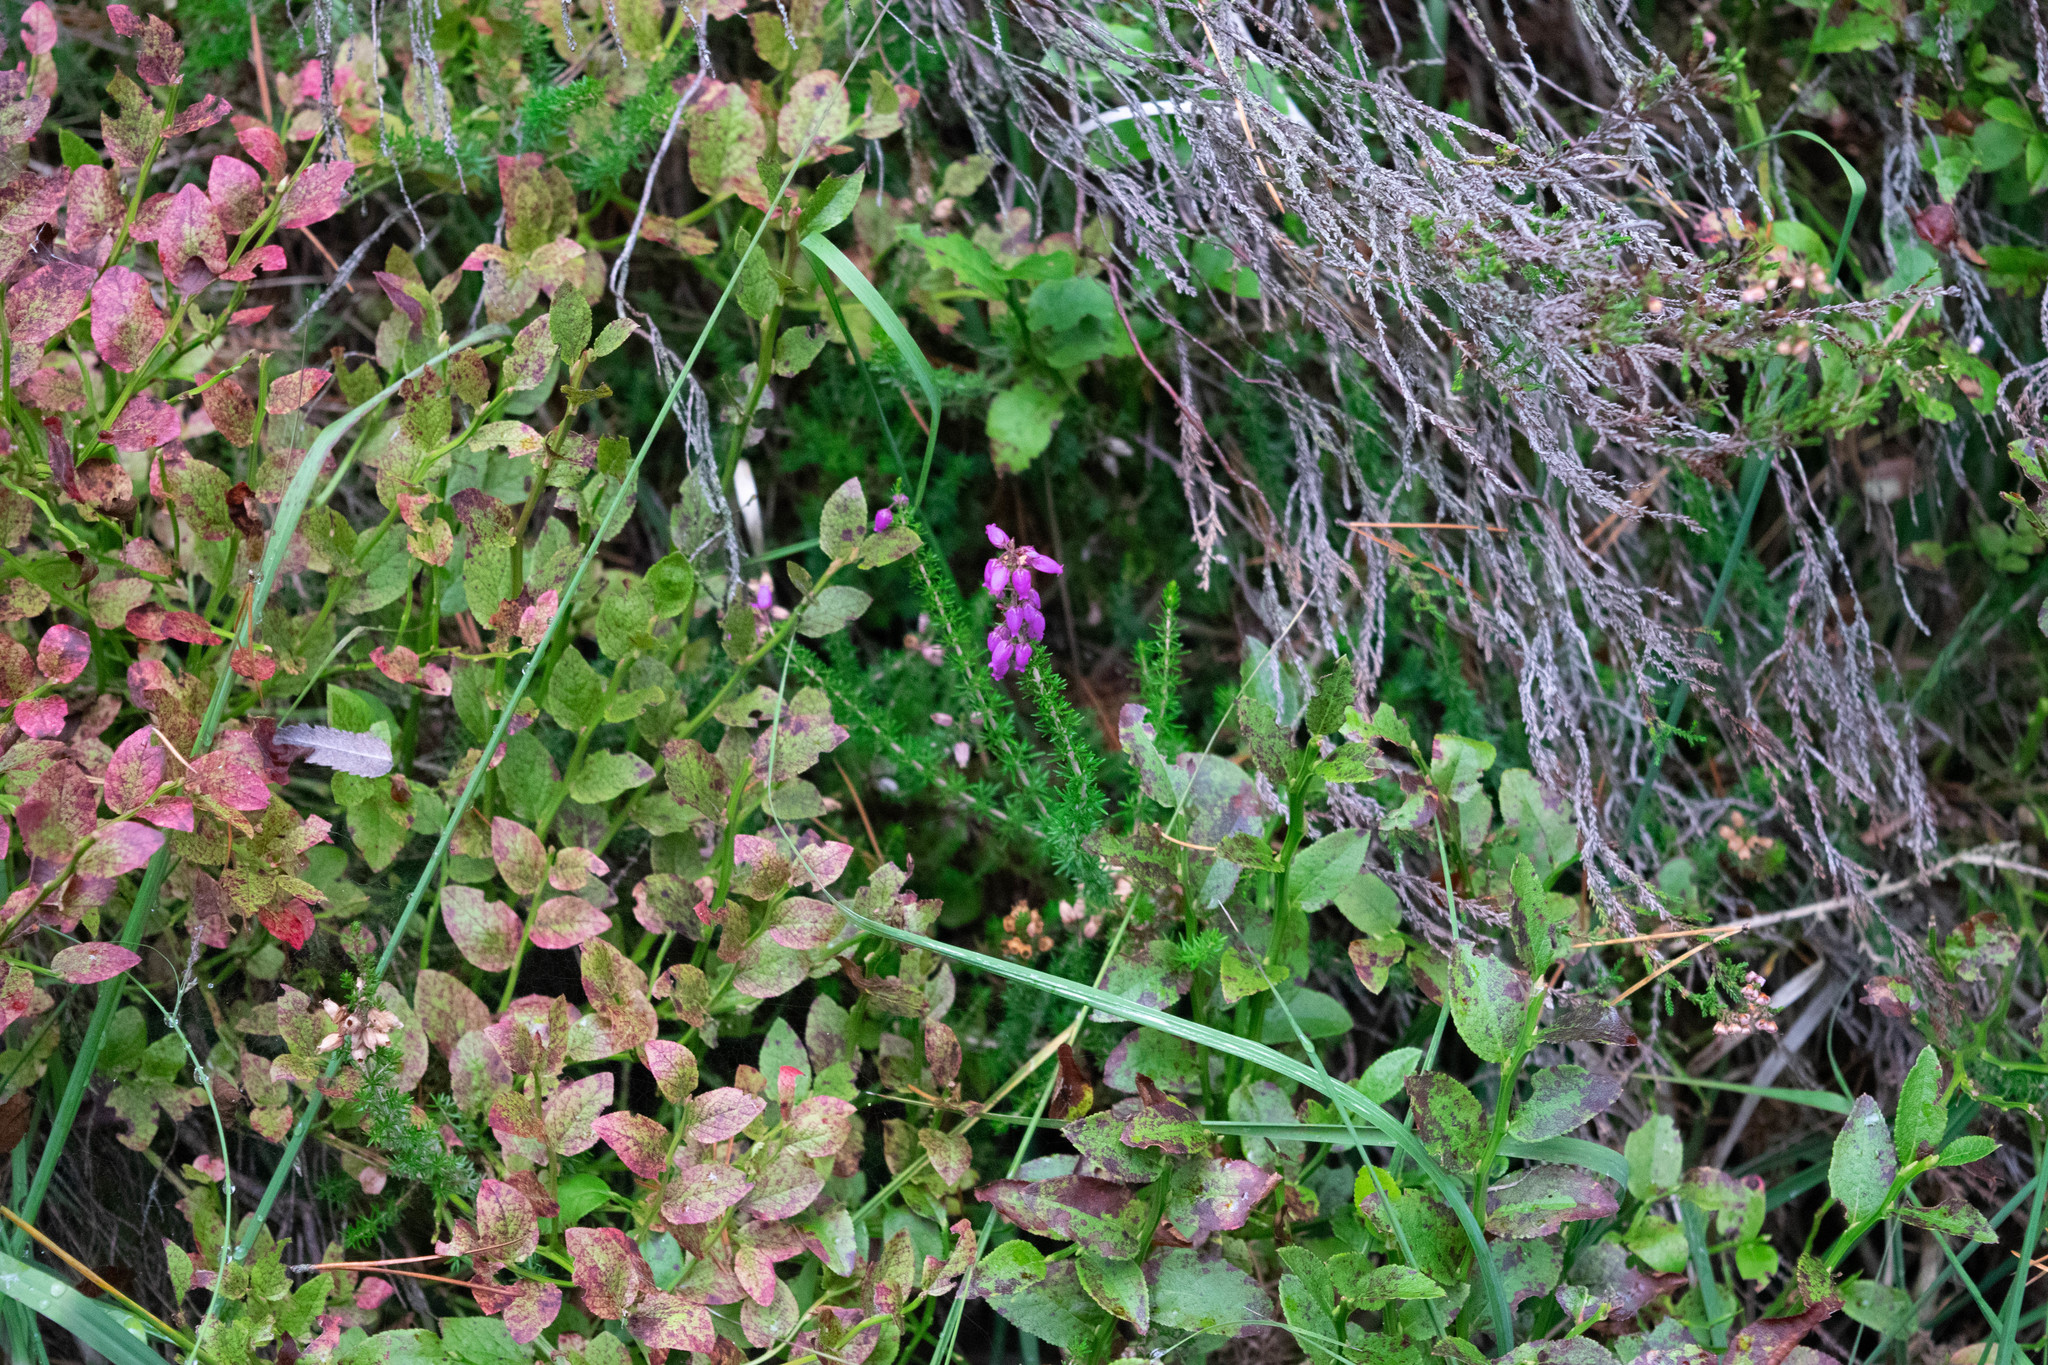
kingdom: Plantae
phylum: Tracheophyta
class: Magnoliopsida
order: Ericales
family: Ericaceae
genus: Erica
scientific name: Erica cinerea
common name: Bell heather
